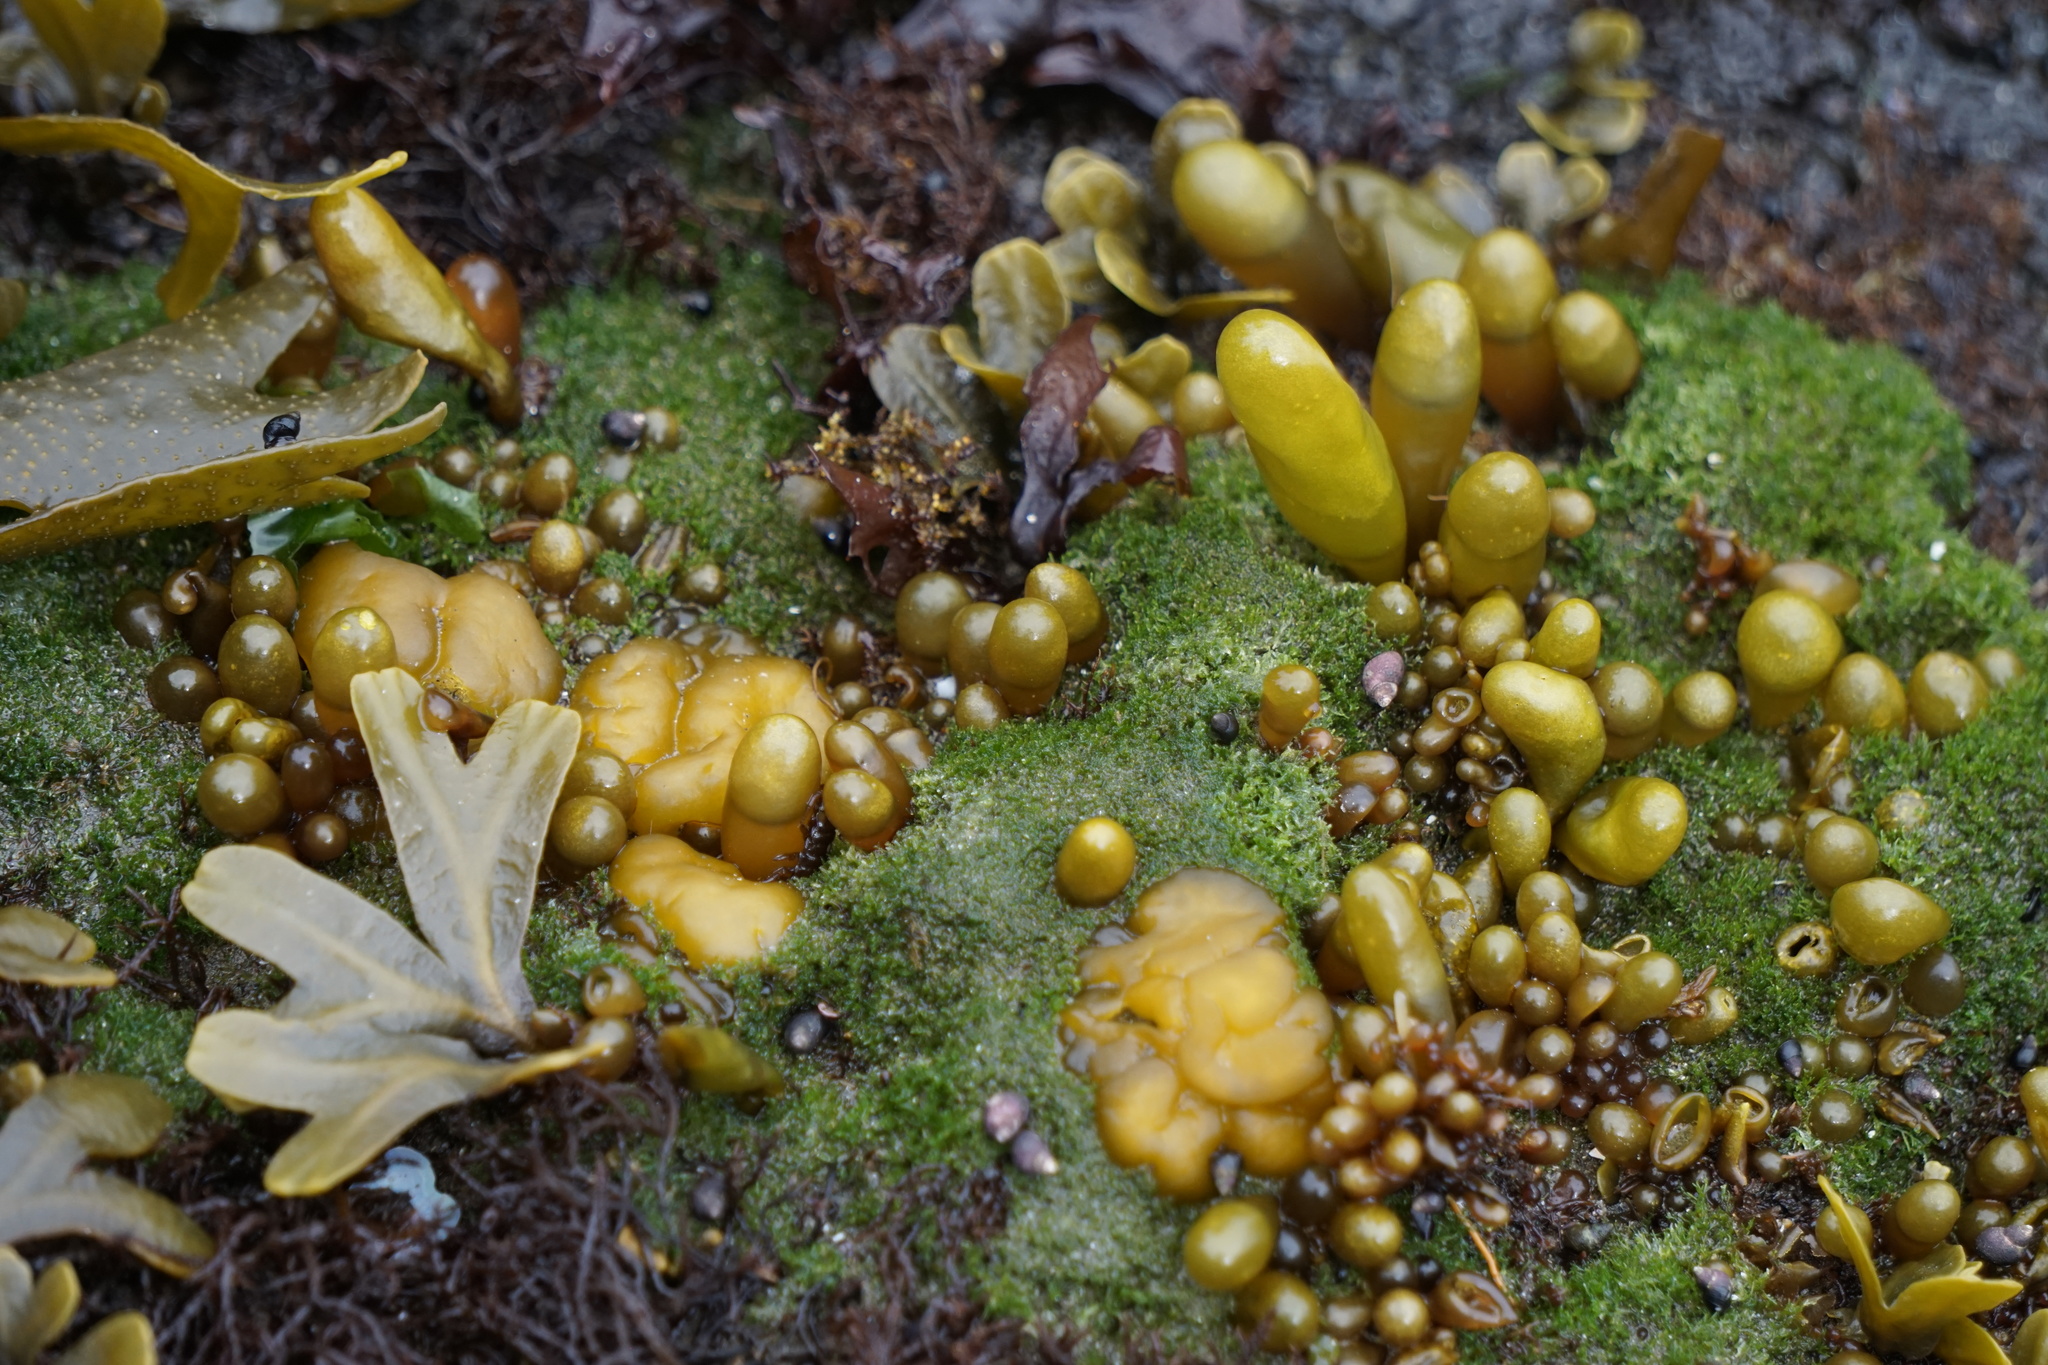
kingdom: Plantae
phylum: Rhodophyta
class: Florideophyceae
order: Palmariales
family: Palmariaceae
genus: Halosaccion
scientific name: Halosaccion glandiforme
